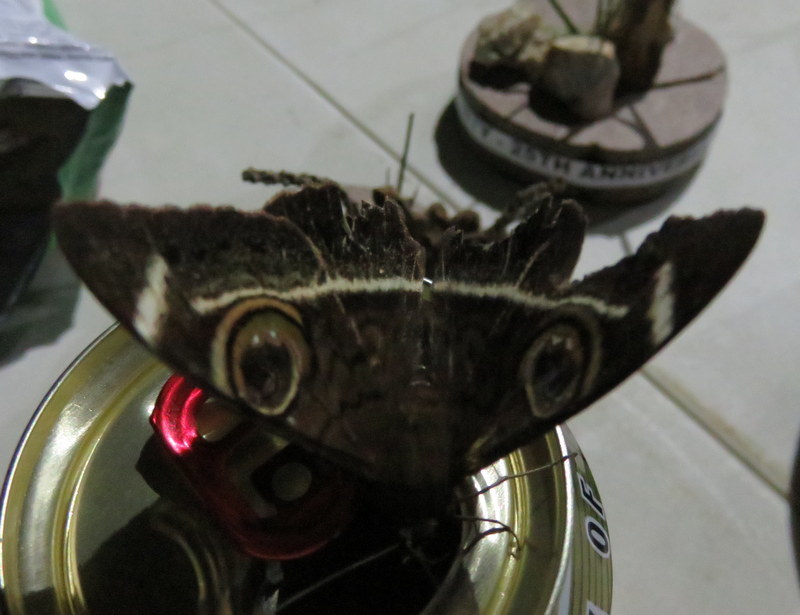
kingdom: Animalia
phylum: Arthropoda
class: Insecta
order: Lepidoptera
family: Erebidae
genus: Cyligramma
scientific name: Cyligramma latona
